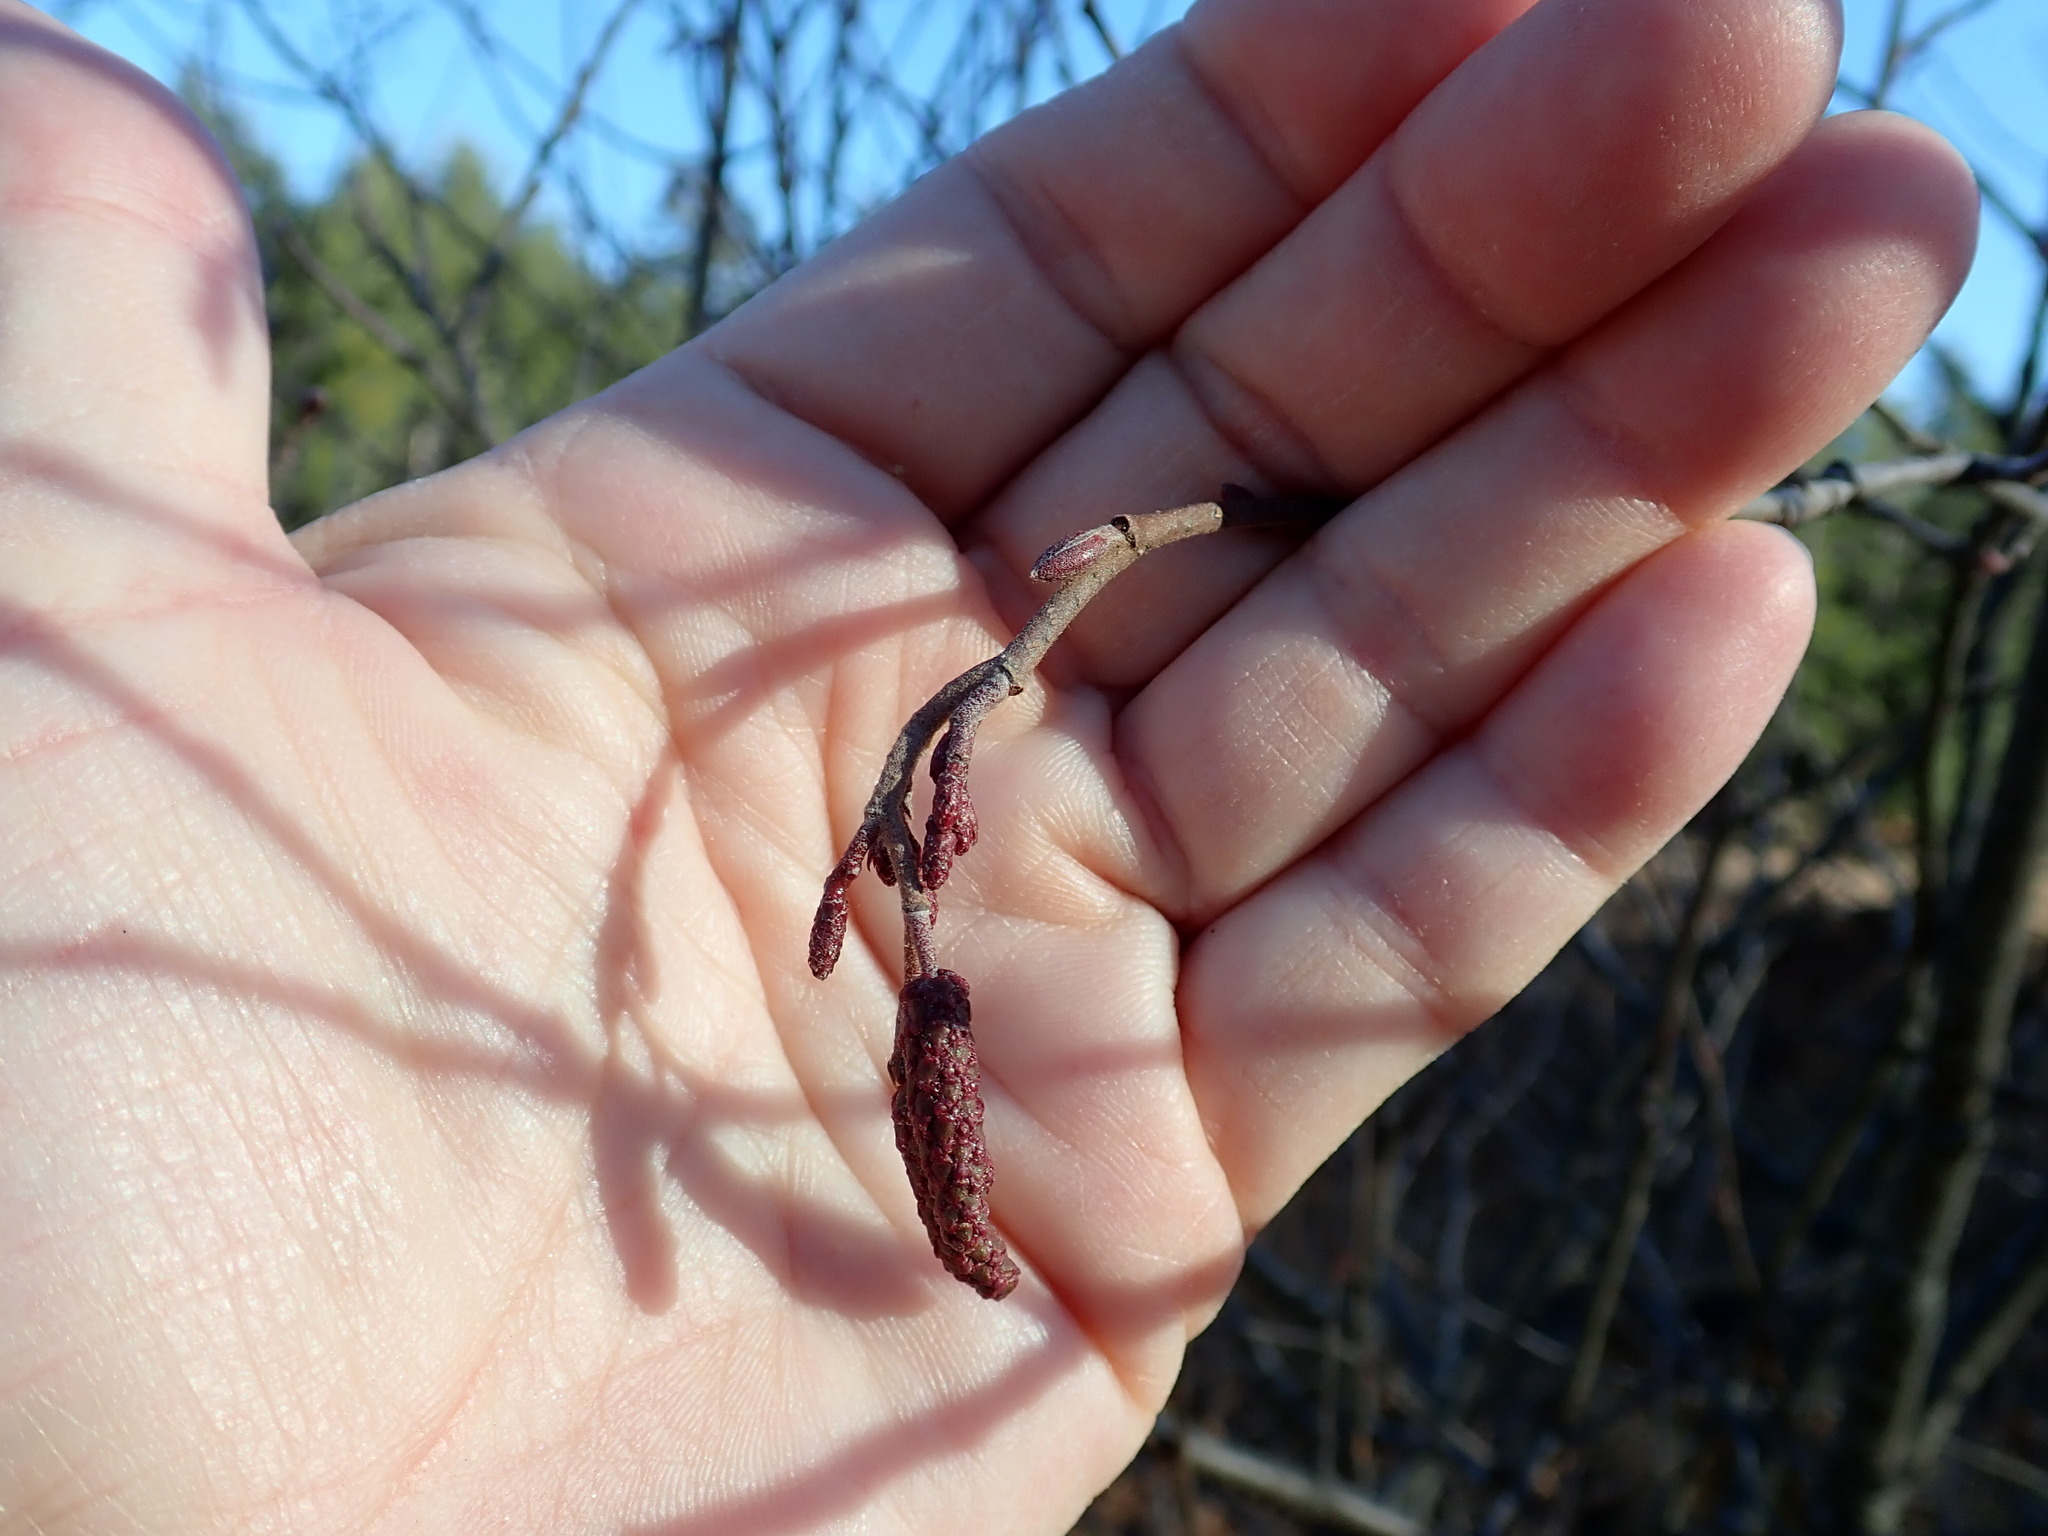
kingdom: Plantae
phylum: Tracheophyta
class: Magnoliopsida
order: Fagales
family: Betulaceae
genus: Alnus
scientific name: Alnus incana
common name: Grey alder
